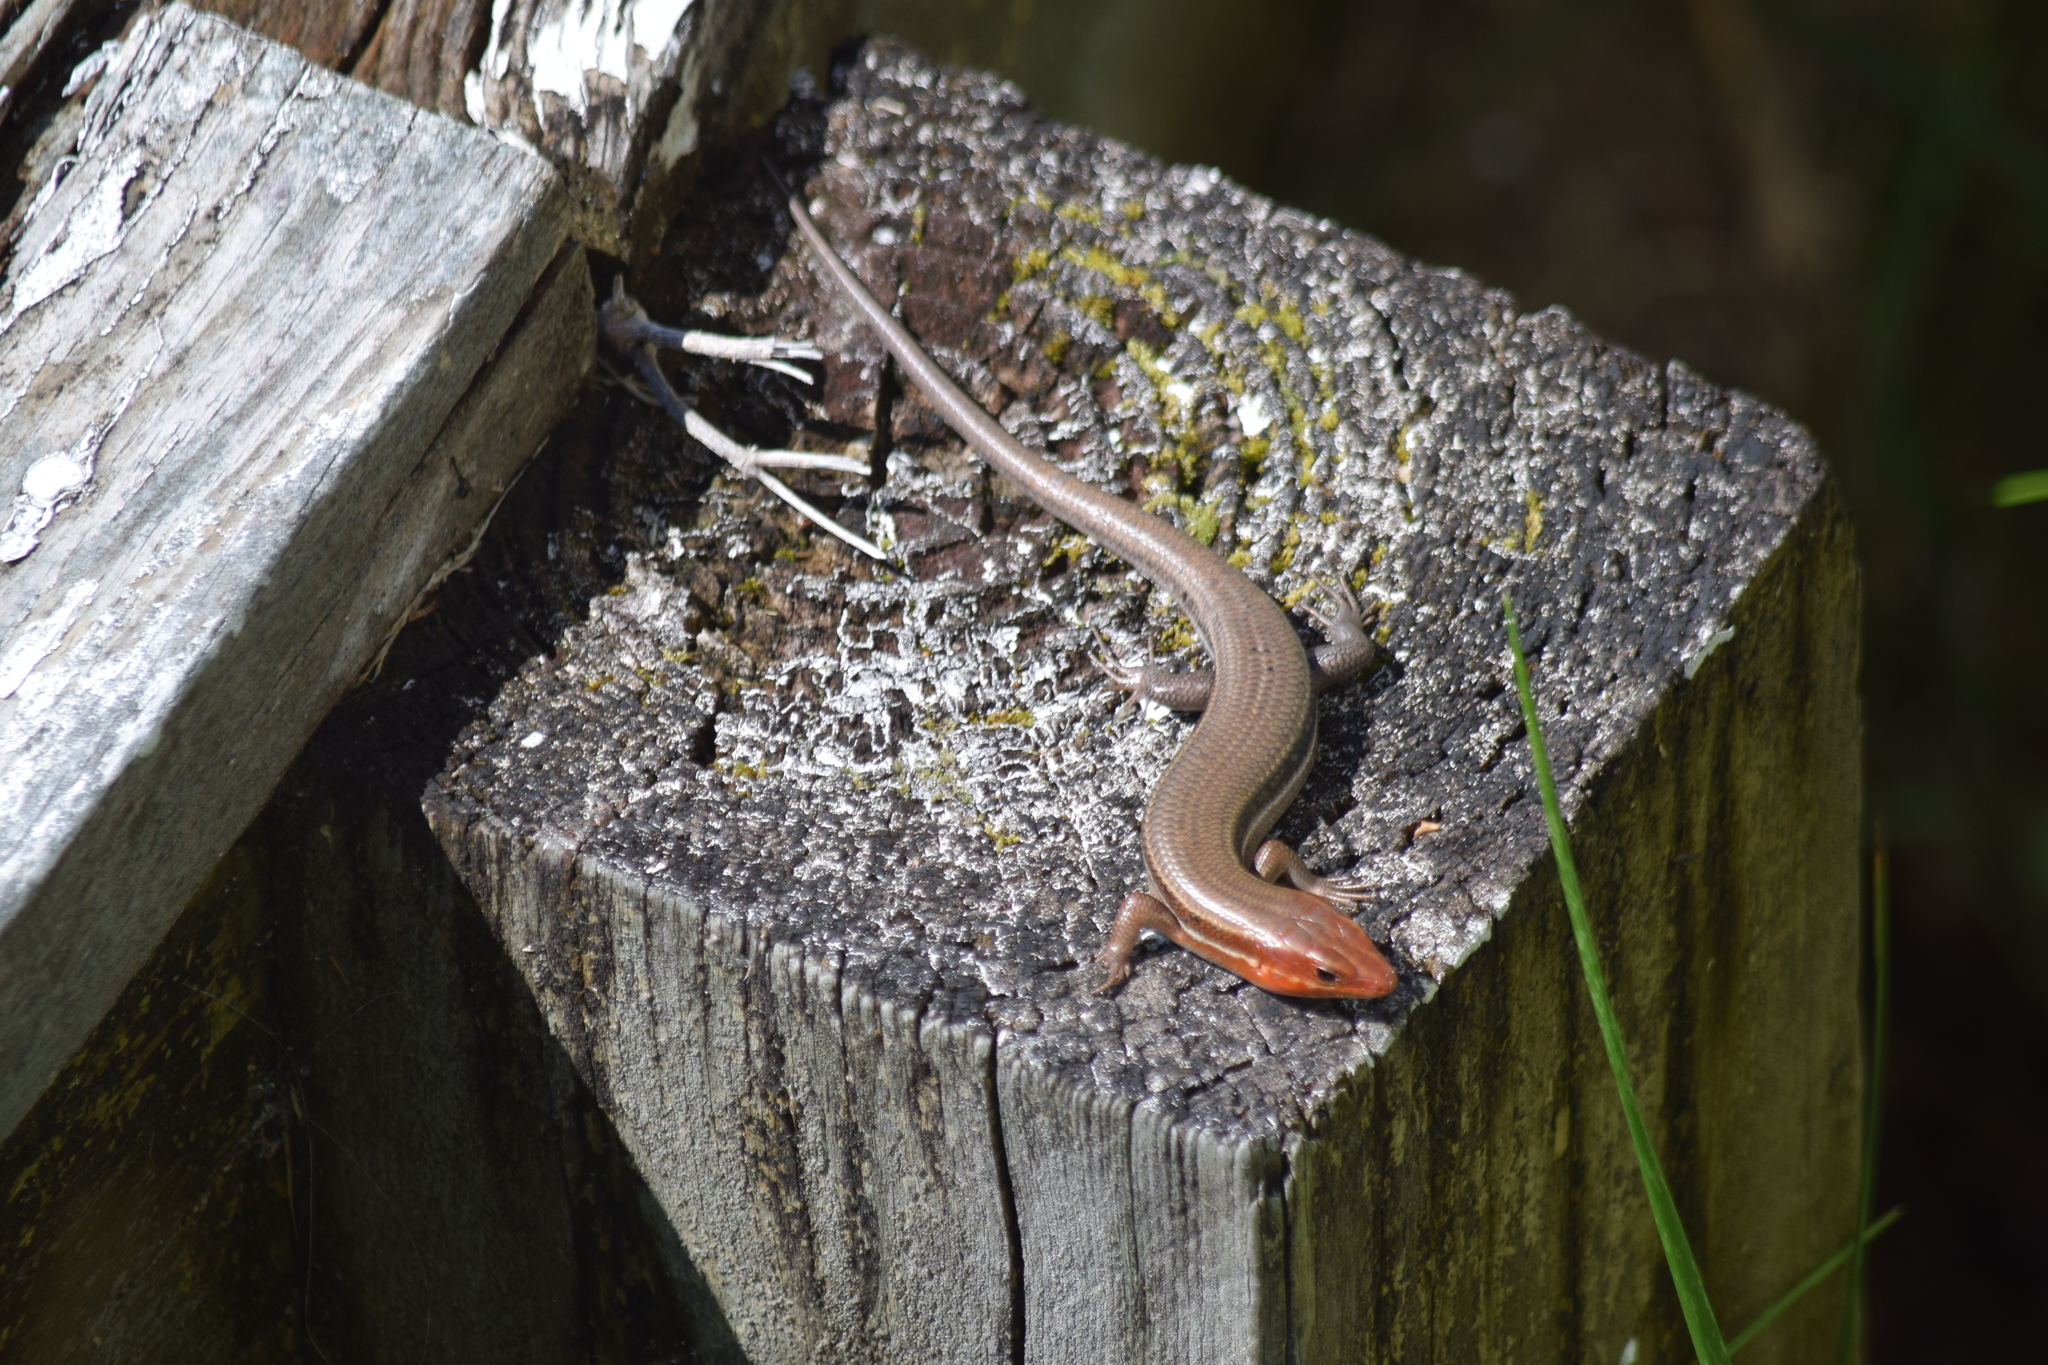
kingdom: Animalia
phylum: Chordata
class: Squamata
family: Scincidae
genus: Plestiodon
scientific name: Plestiodon inexpectatus
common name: Southeastern five-lined skink
